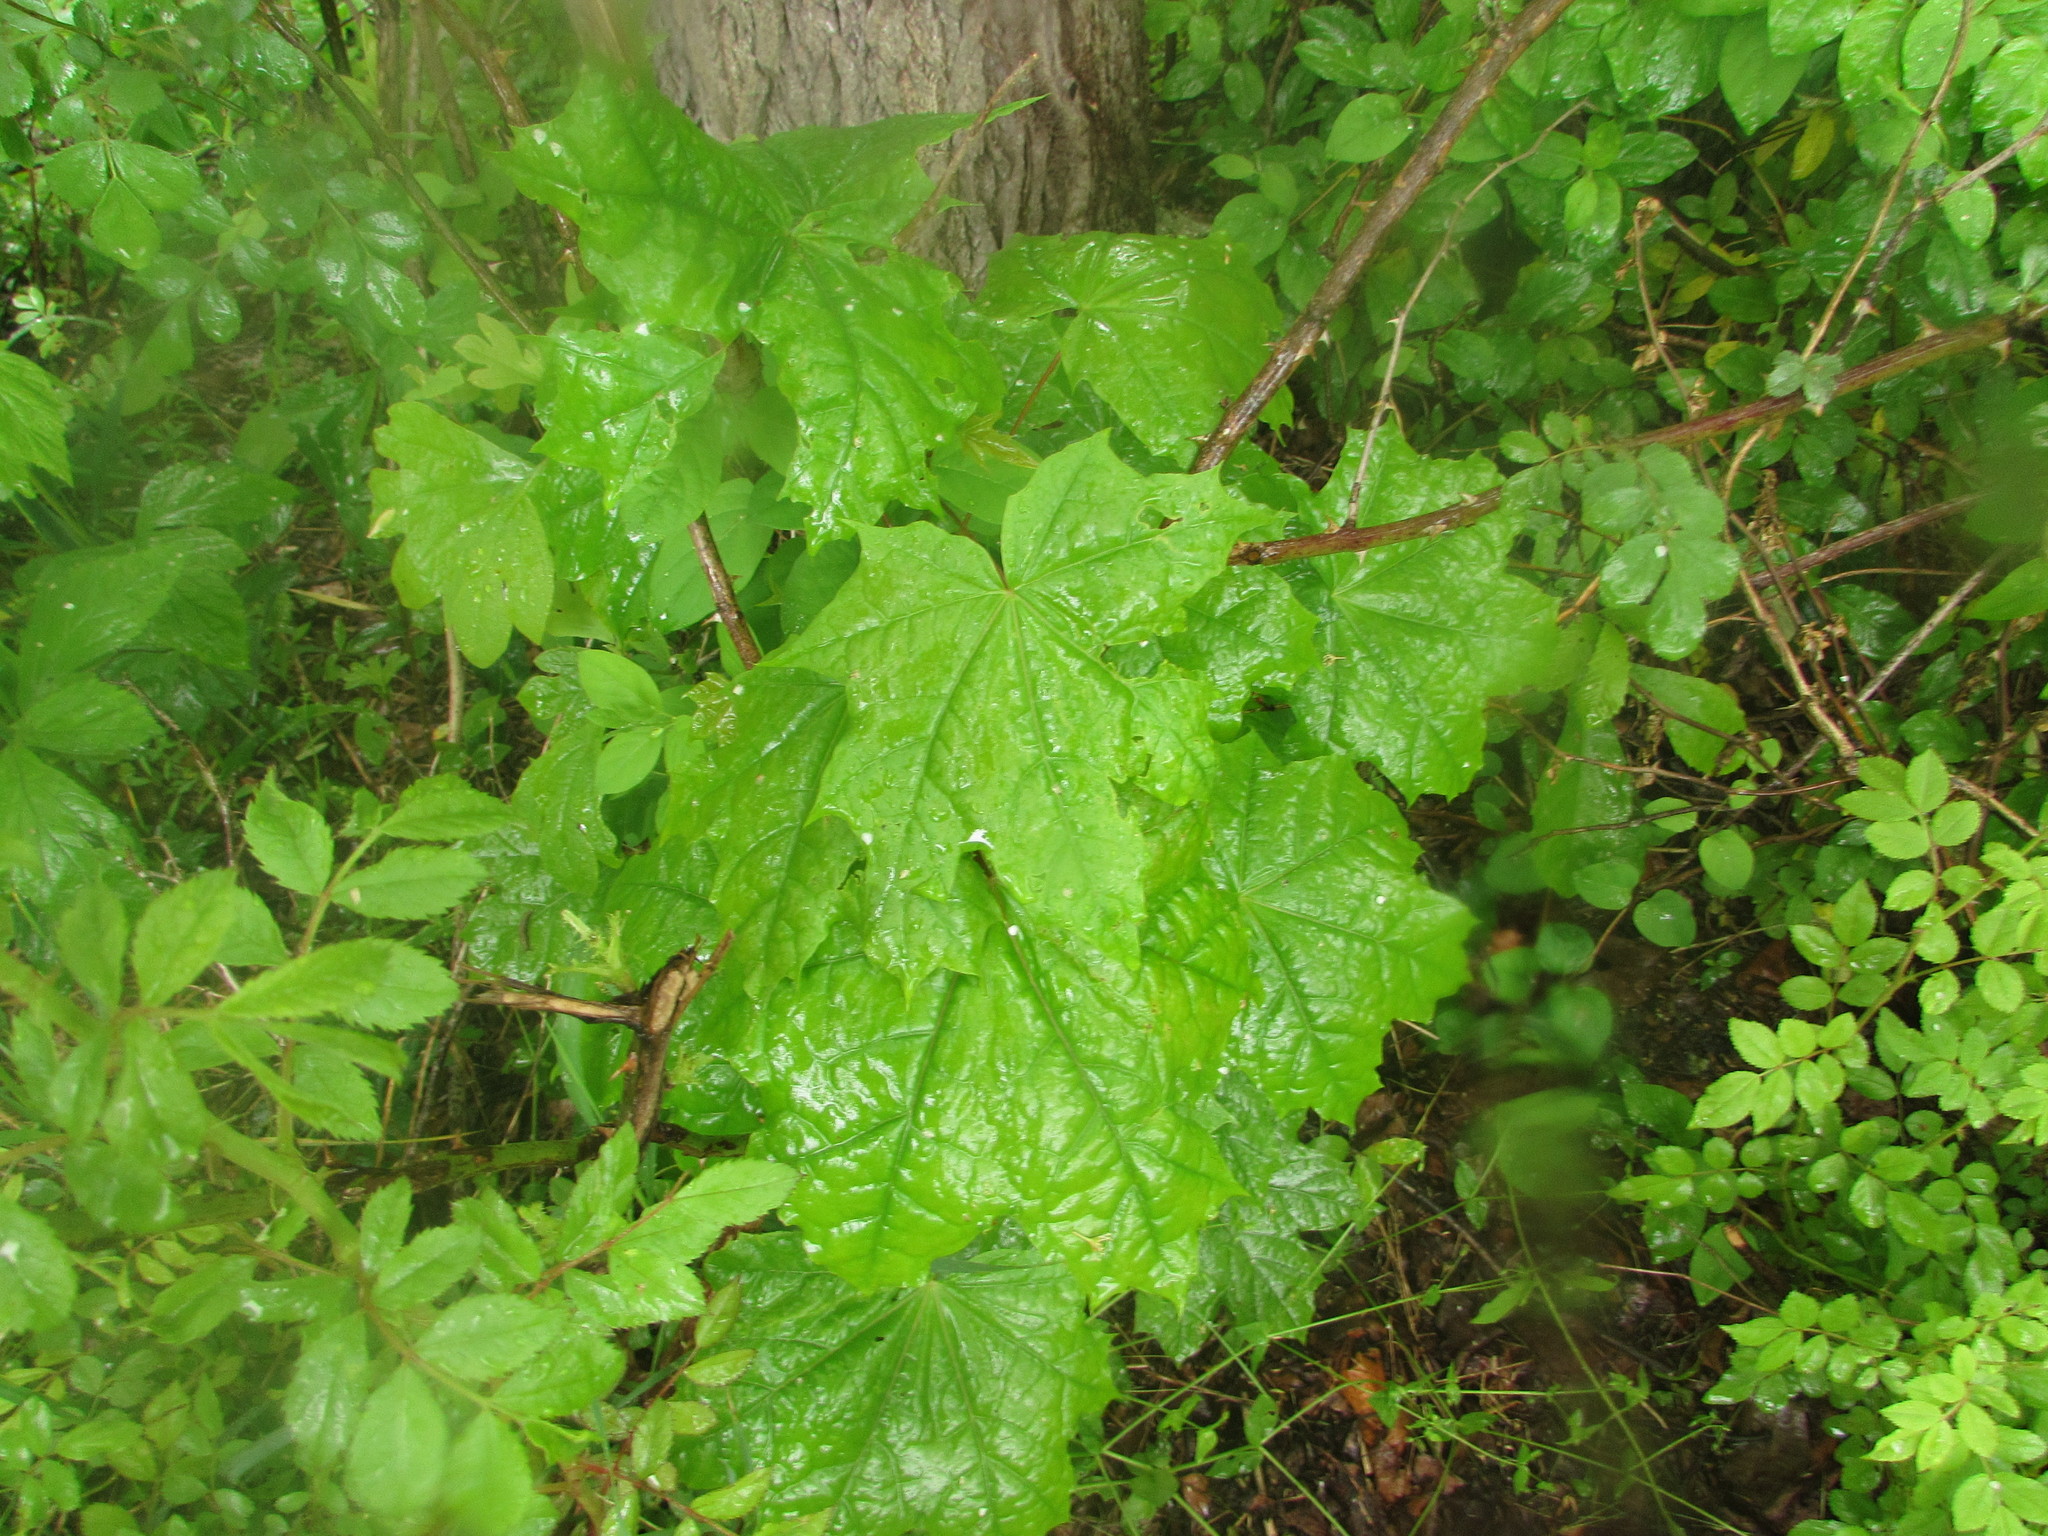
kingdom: Plantae
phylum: Tracheophyta
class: Magnoliopsida
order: Sapindales
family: Sapindaceae
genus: Acer
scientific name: Acer platanoides
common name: Norway maple
